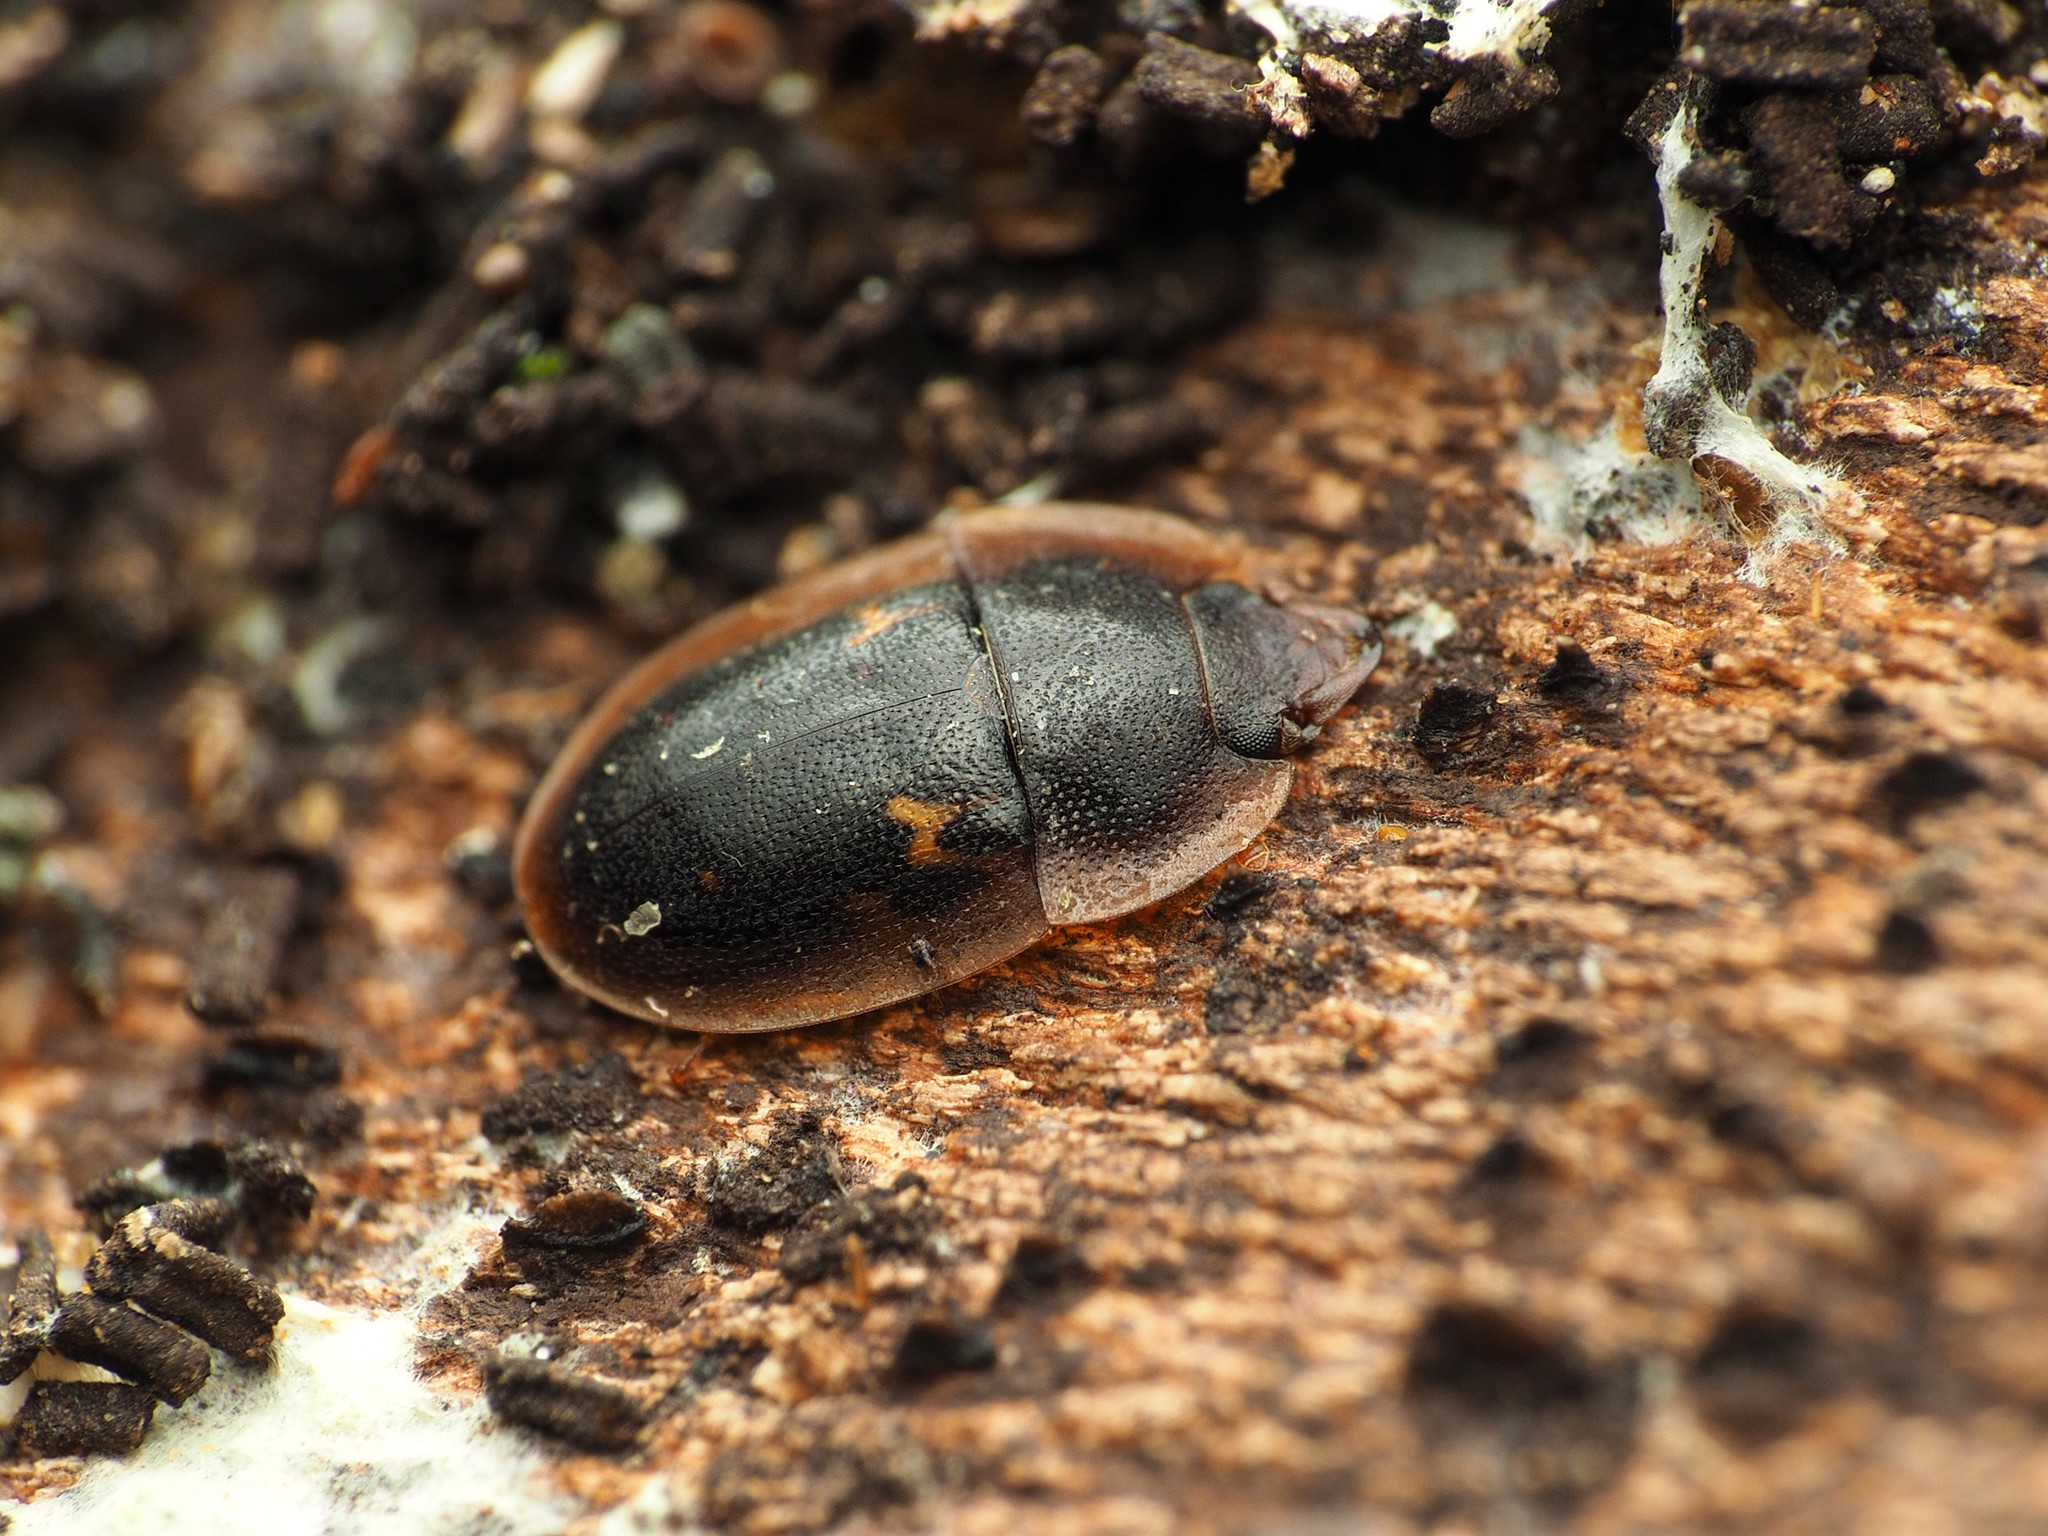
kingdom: Animalia
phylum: Arthropoda
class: Insecta
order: Coleoptera
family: Nitidulidae
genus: Prometopia
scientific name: Prometopia sexmaculata
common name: Six-spotted sap-feeding beetle
